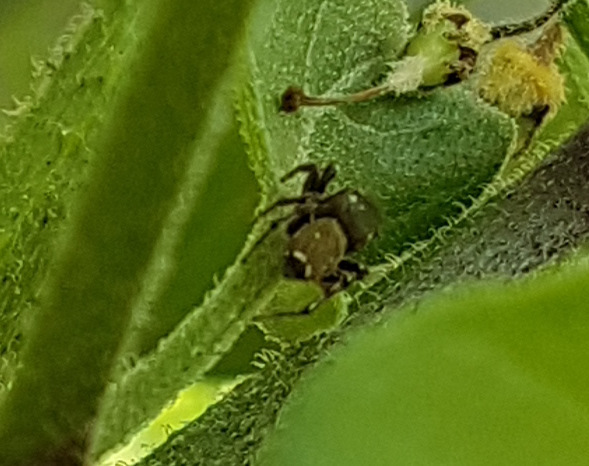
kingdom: Animalia
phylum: Arthropoda
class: Arachnida
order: Araneae
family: Salticidae
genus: Heliophanus
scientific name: Heliophanus tribulosus
